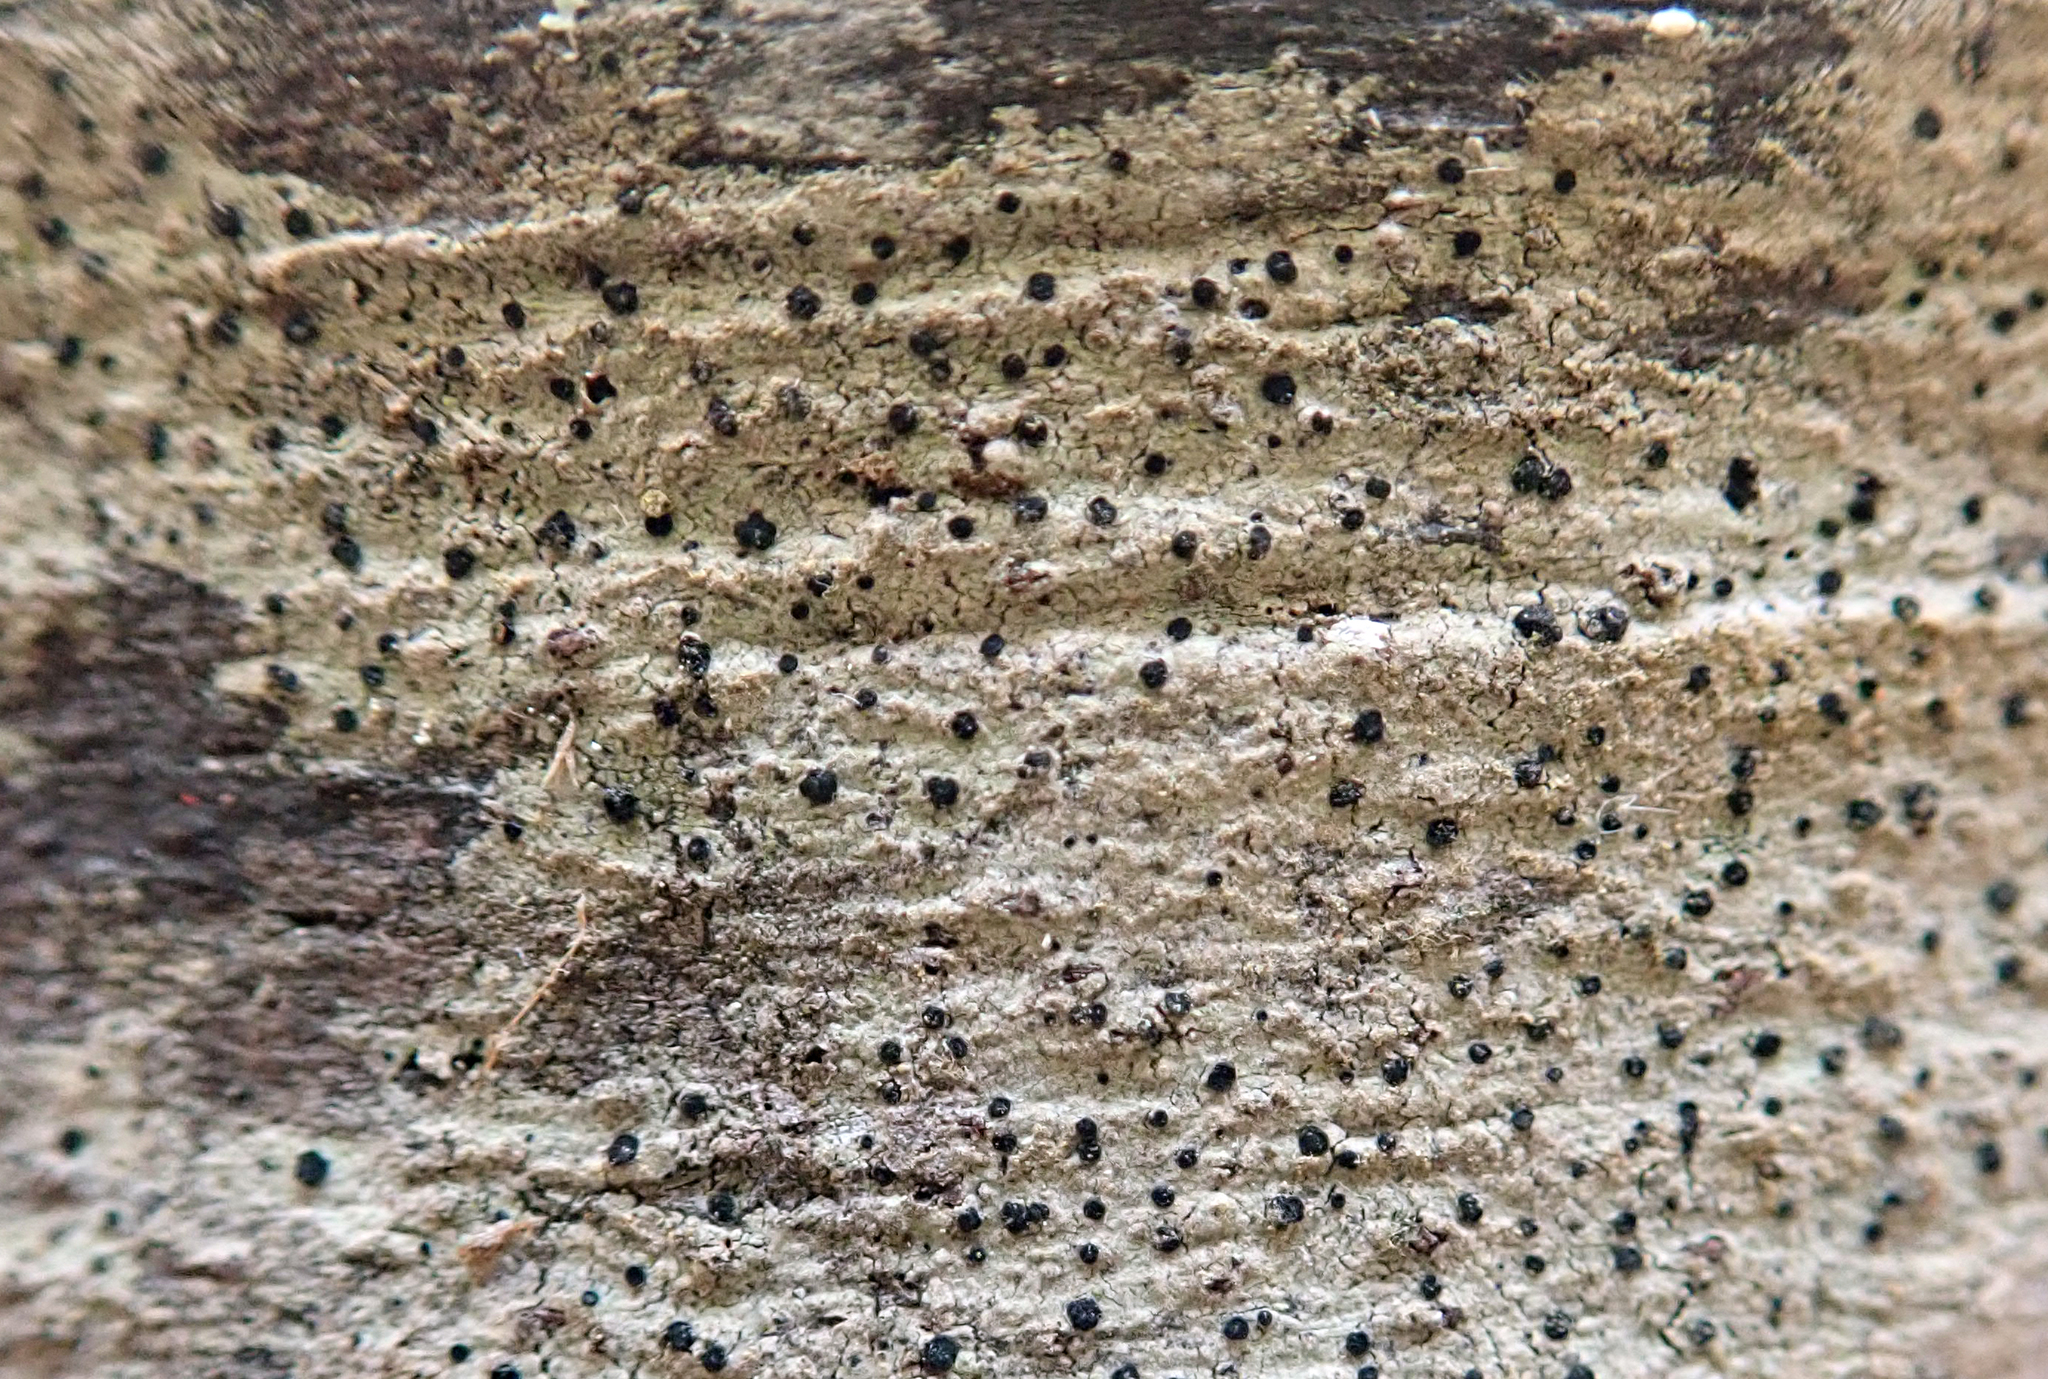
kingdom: Fungi
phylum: Ascomycota
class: Lecanoromycetes
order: Lecanorales
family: Ramalinaceae
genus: Megalaria
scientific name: Megalaria maculosa
